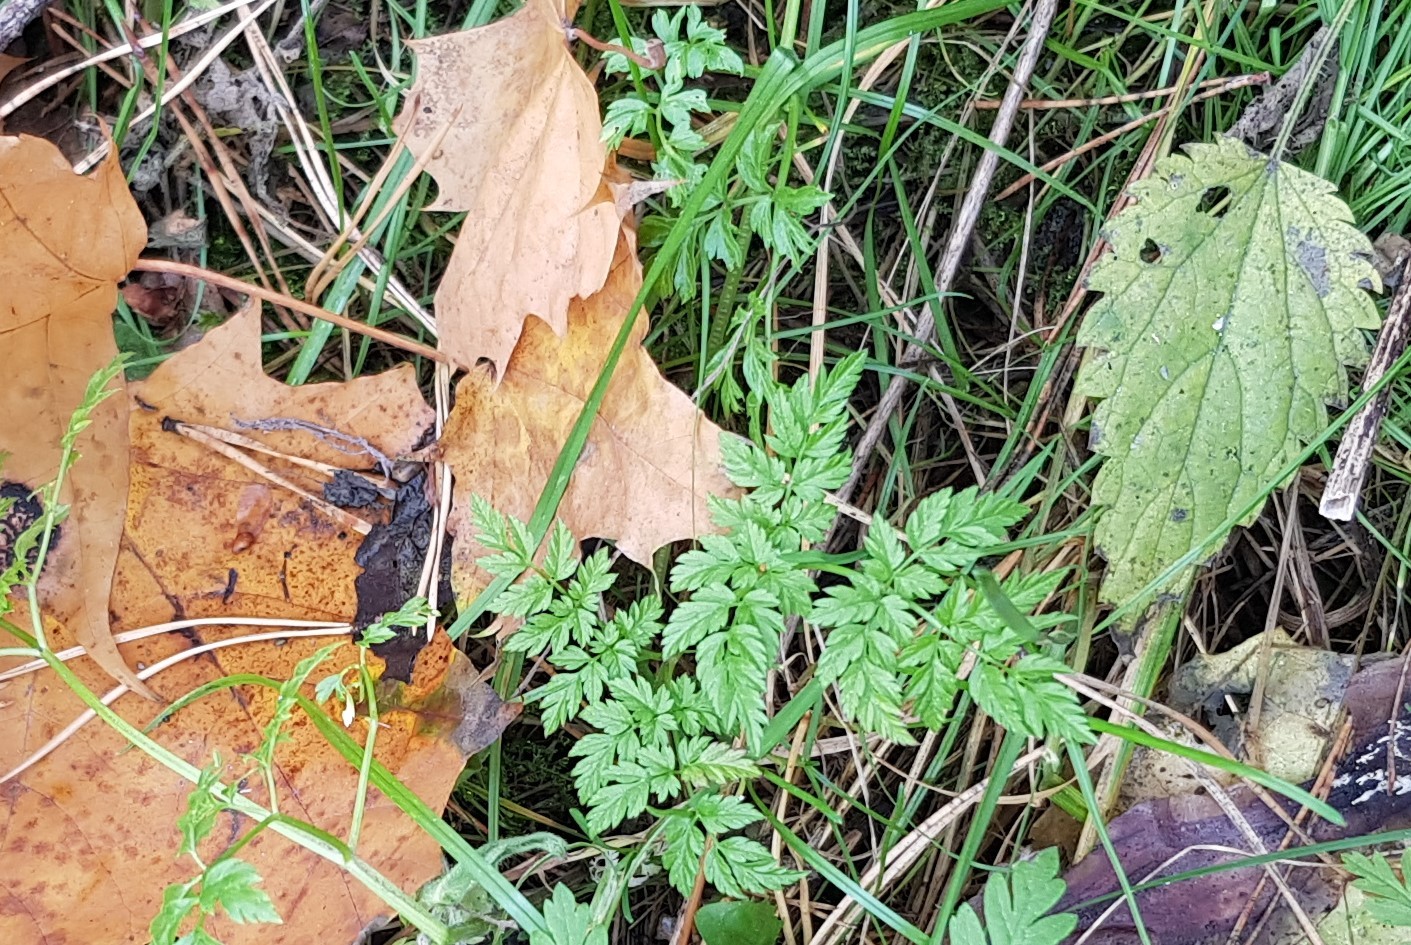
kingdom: Plantae
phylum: Tracheophyta
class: Magnoliopsida
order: Apiales
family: Apiaceae
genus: Anthriscus
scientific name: Anthriscus sylvestris
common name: Cow parsley
